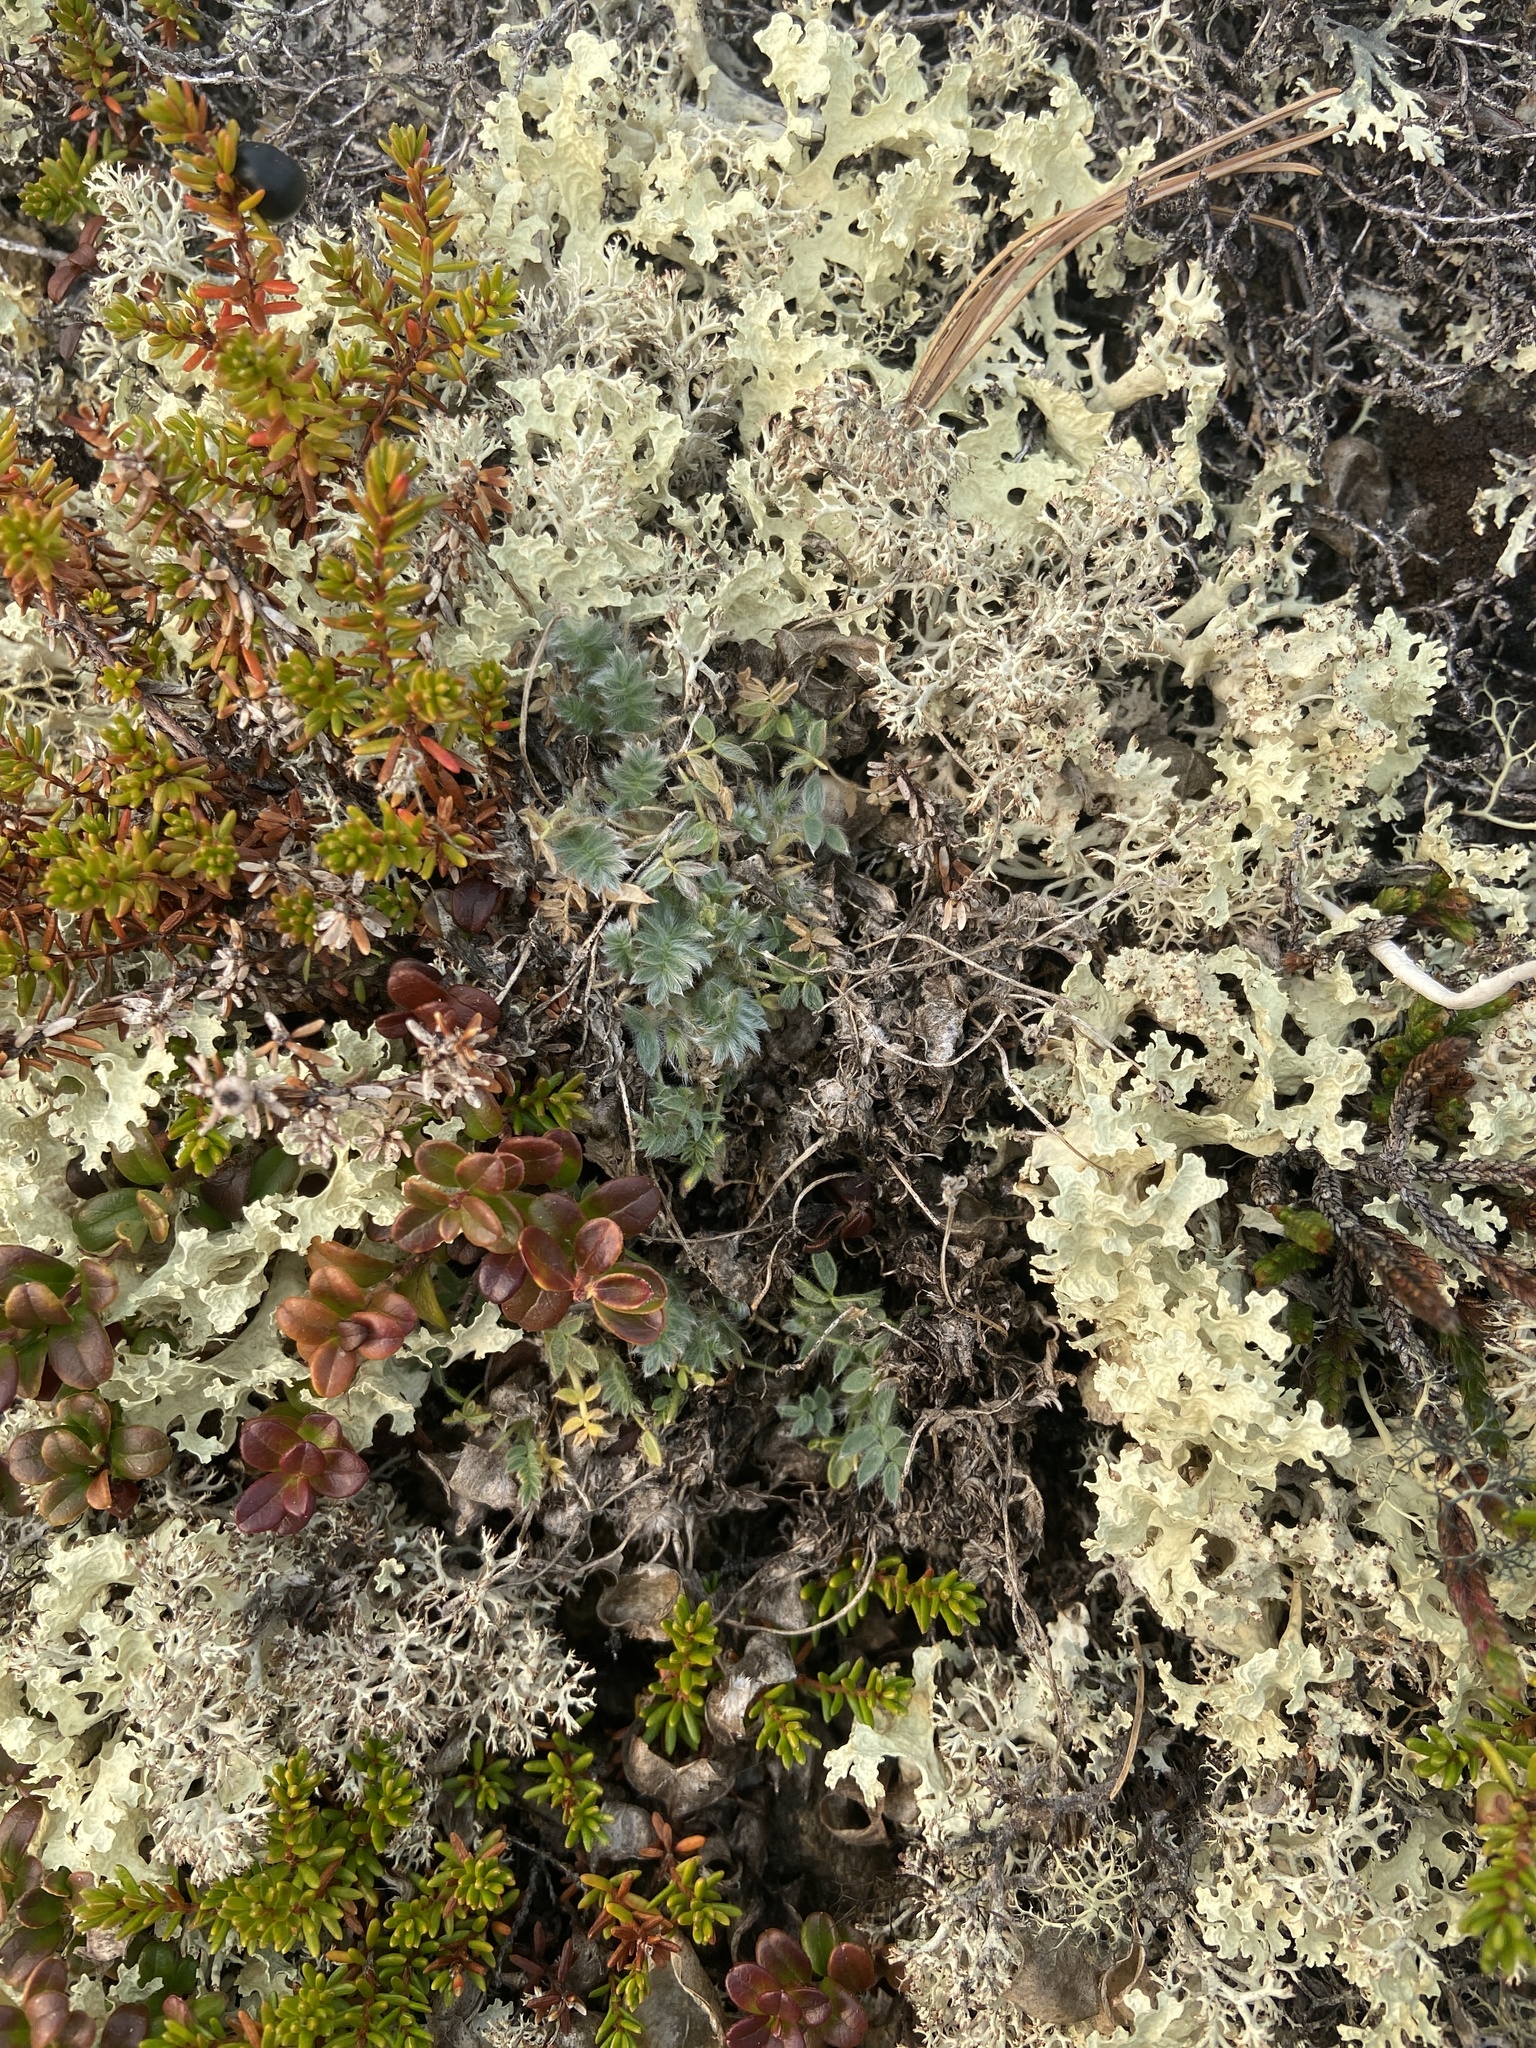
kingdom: Plantae
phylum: Tracheophyta
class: Magnoliopsida
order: Fabales
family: Fabaceae
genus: Oxytropis
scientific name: Oxytropis susumanica
